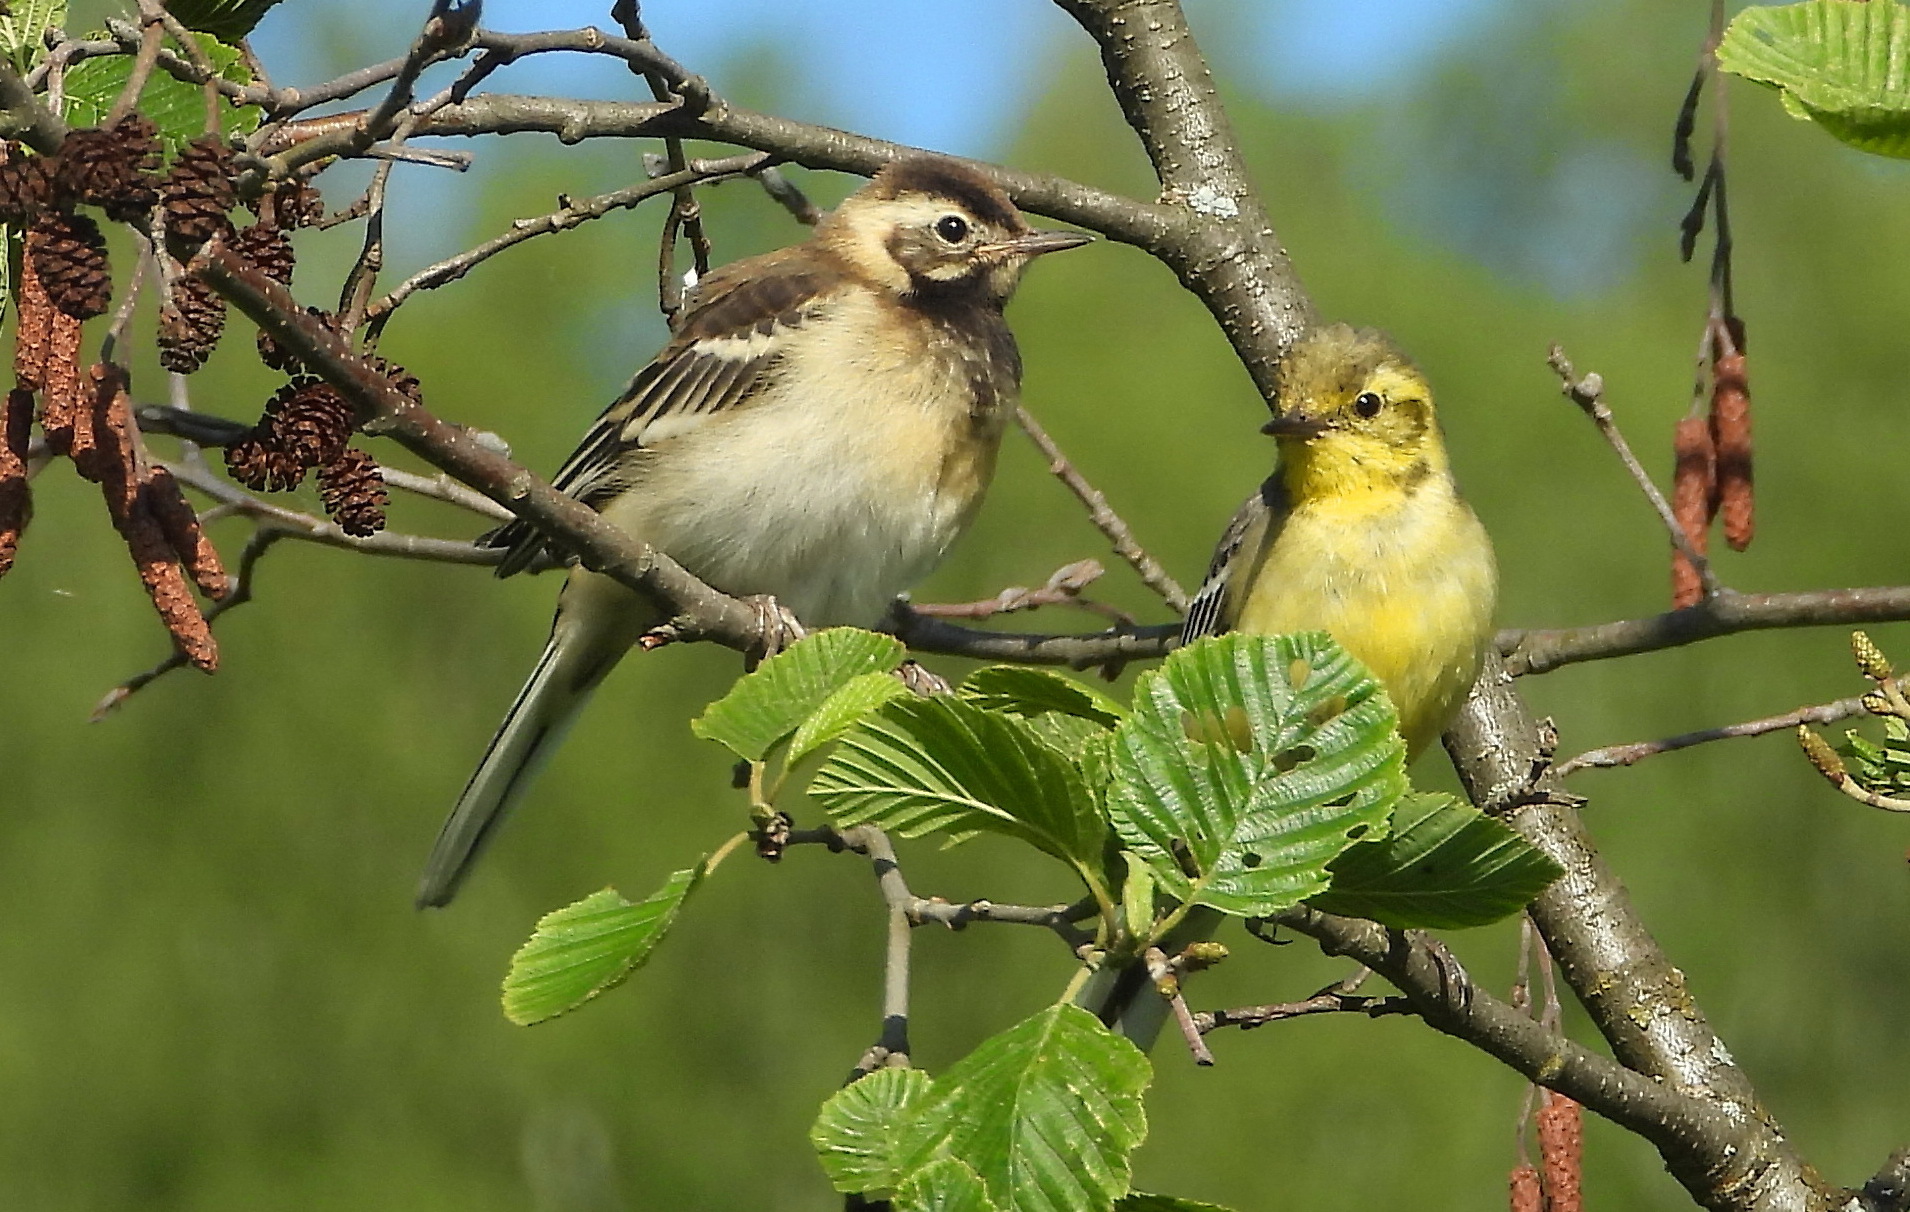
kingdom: Animalia
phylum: Chordata
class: Aves
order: Passeriformes
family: Motacillidae
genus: Motacilla
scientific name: Motacilla citreola
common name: Citrine wagtail
